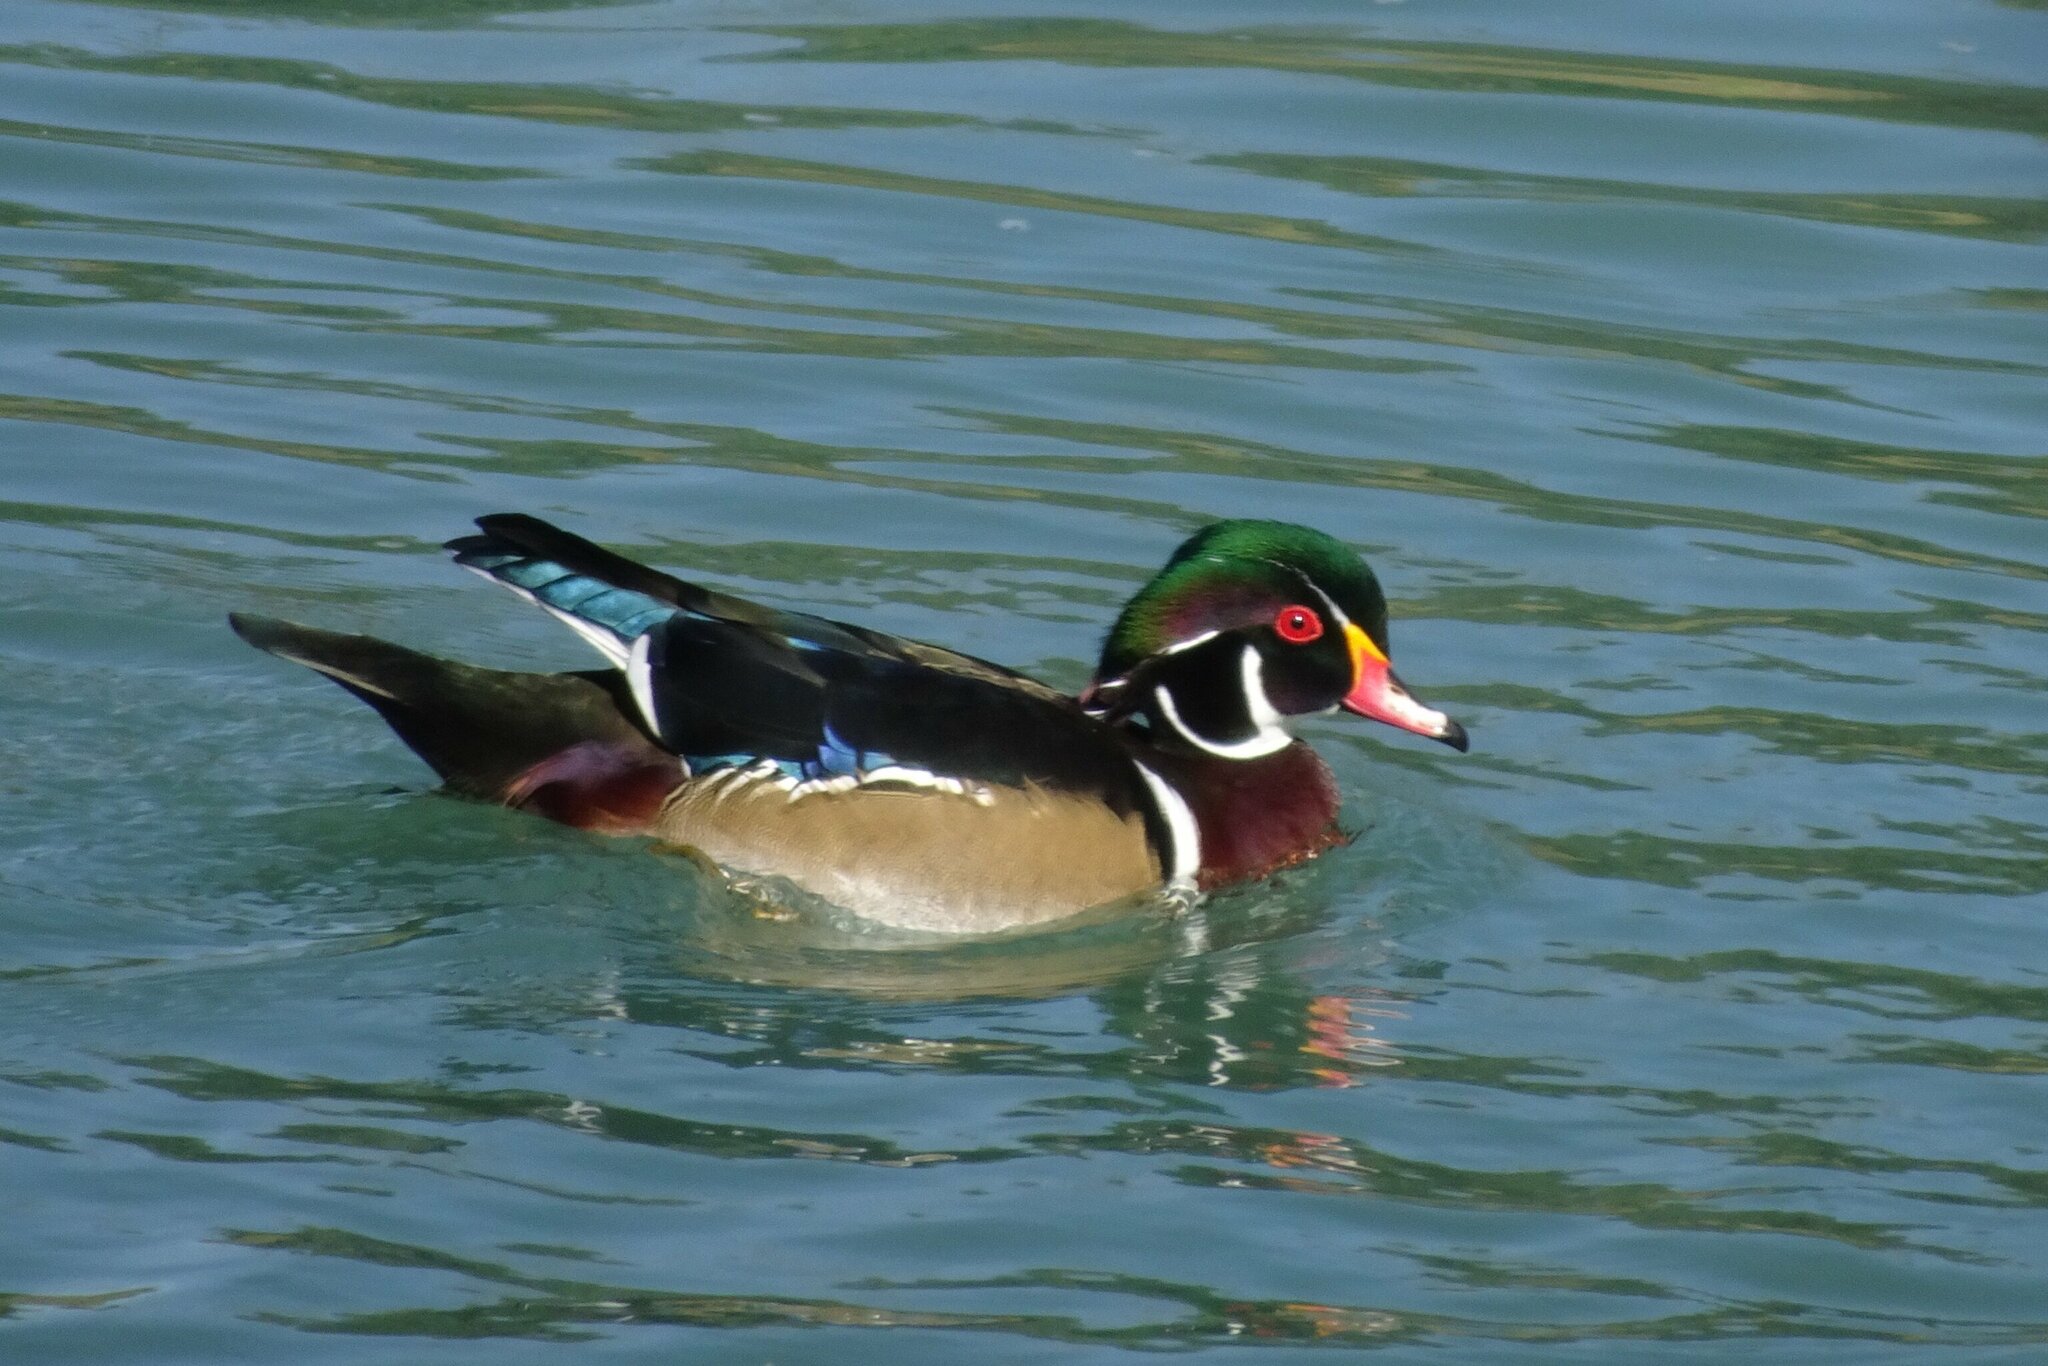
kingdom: Animalia
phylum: Chordata
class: Aves
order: Anseriformes
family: Anatidae
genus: Aix
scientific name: Aix sponsa
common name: Wood duck
